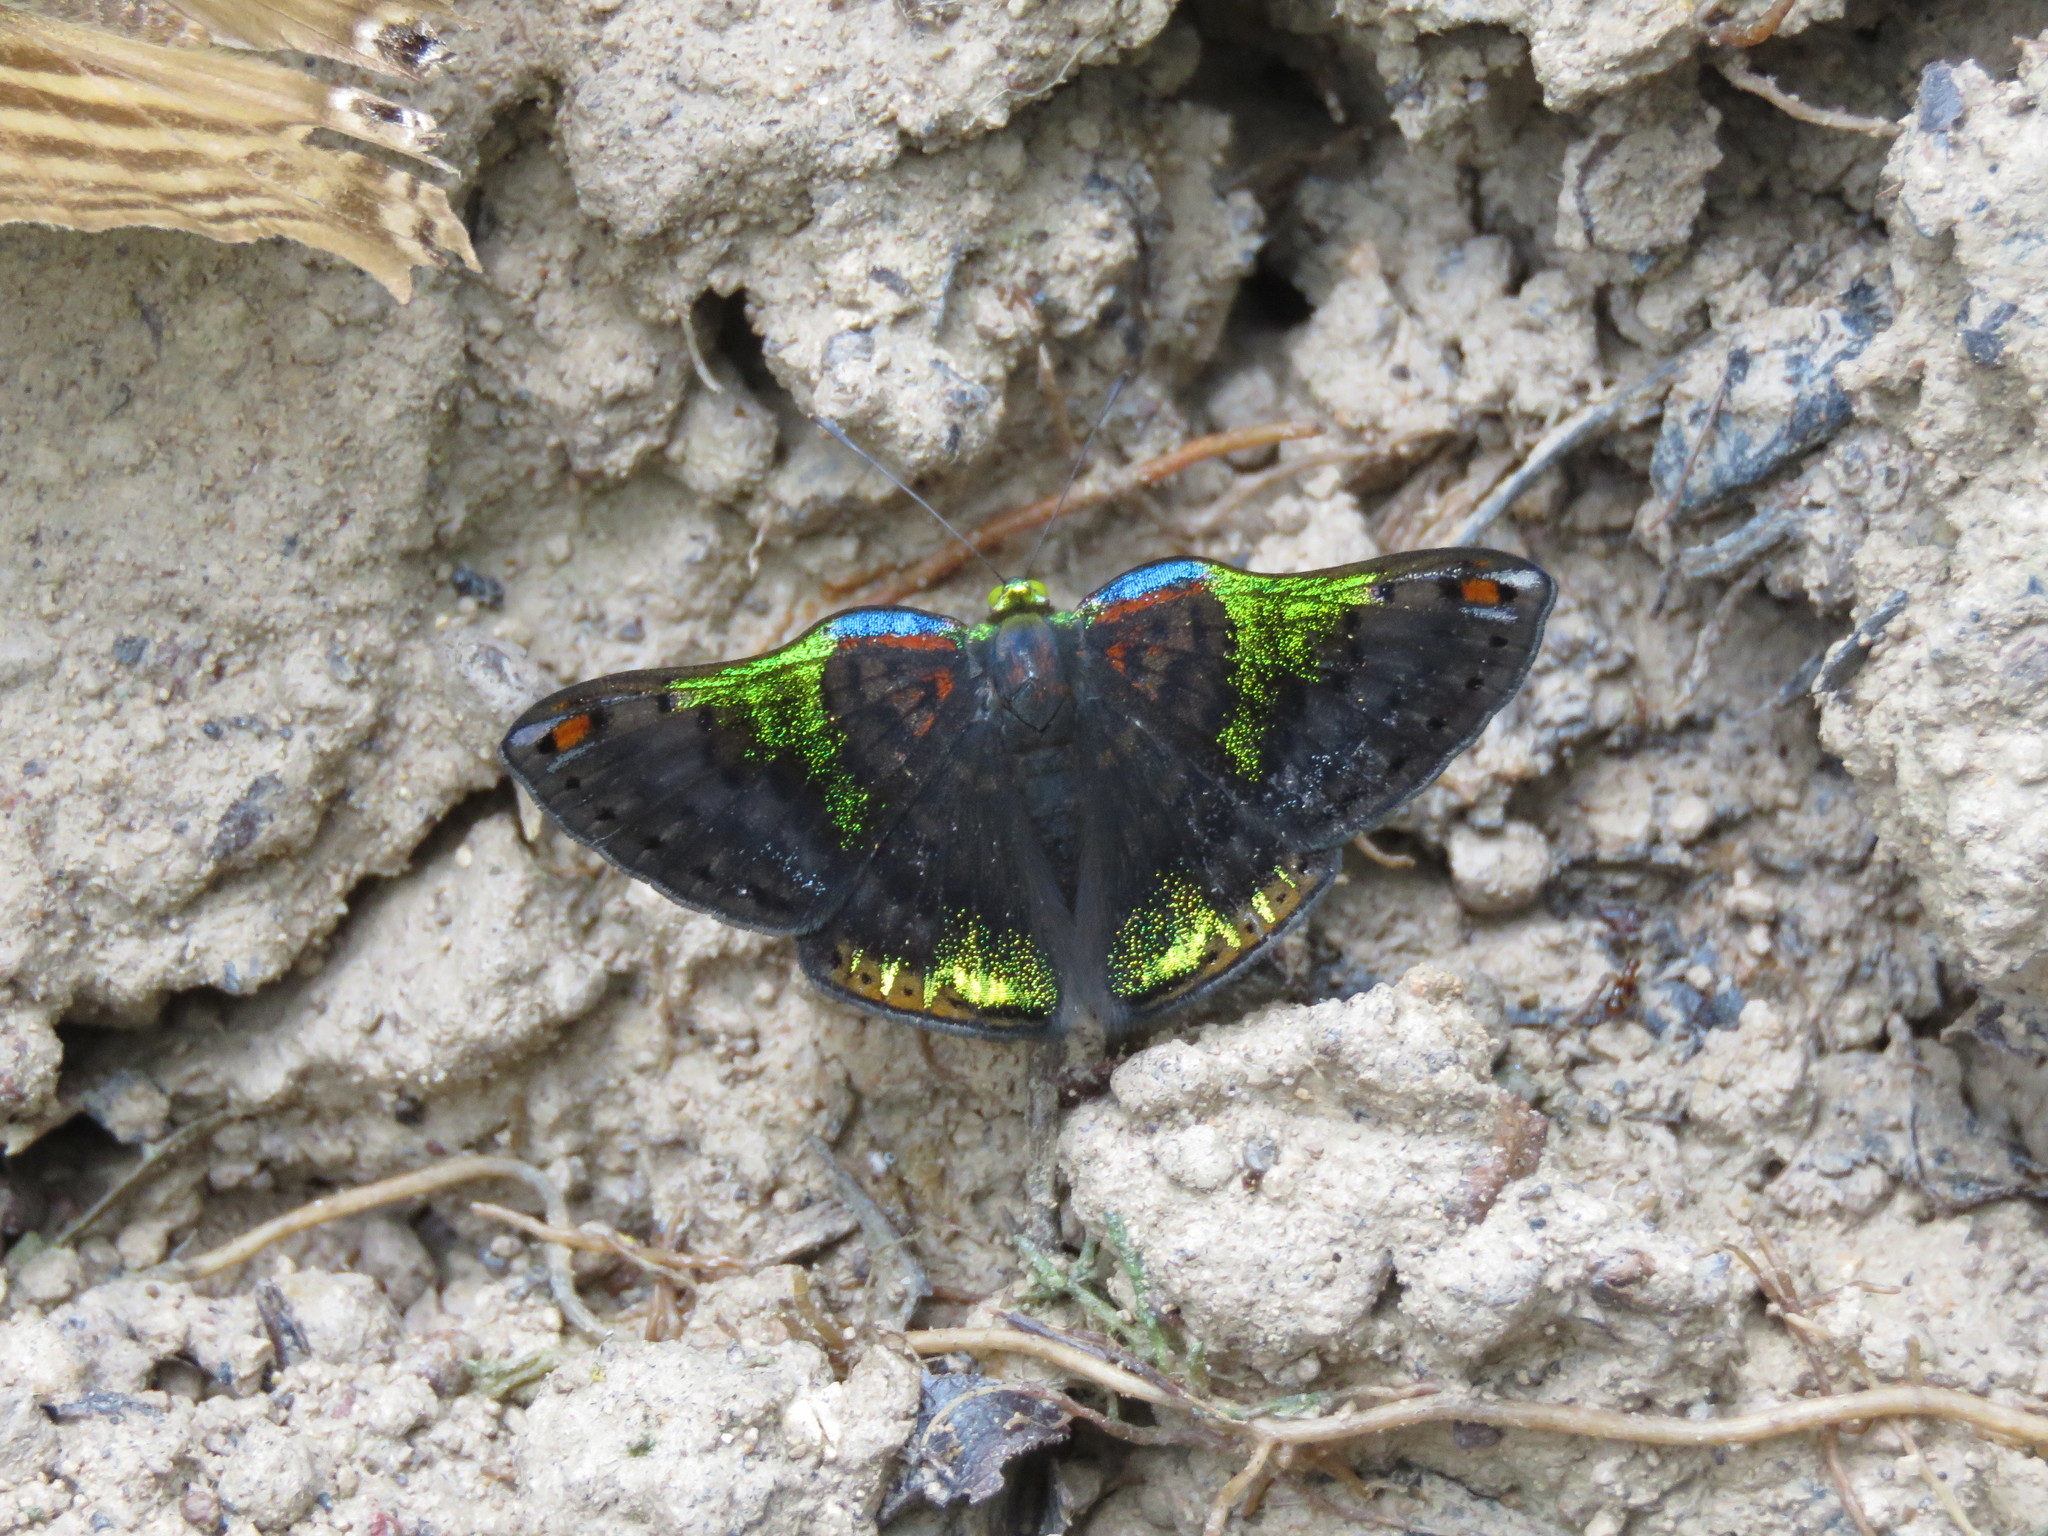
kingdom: Animalia
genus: Caria
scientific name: Caria trochilus
